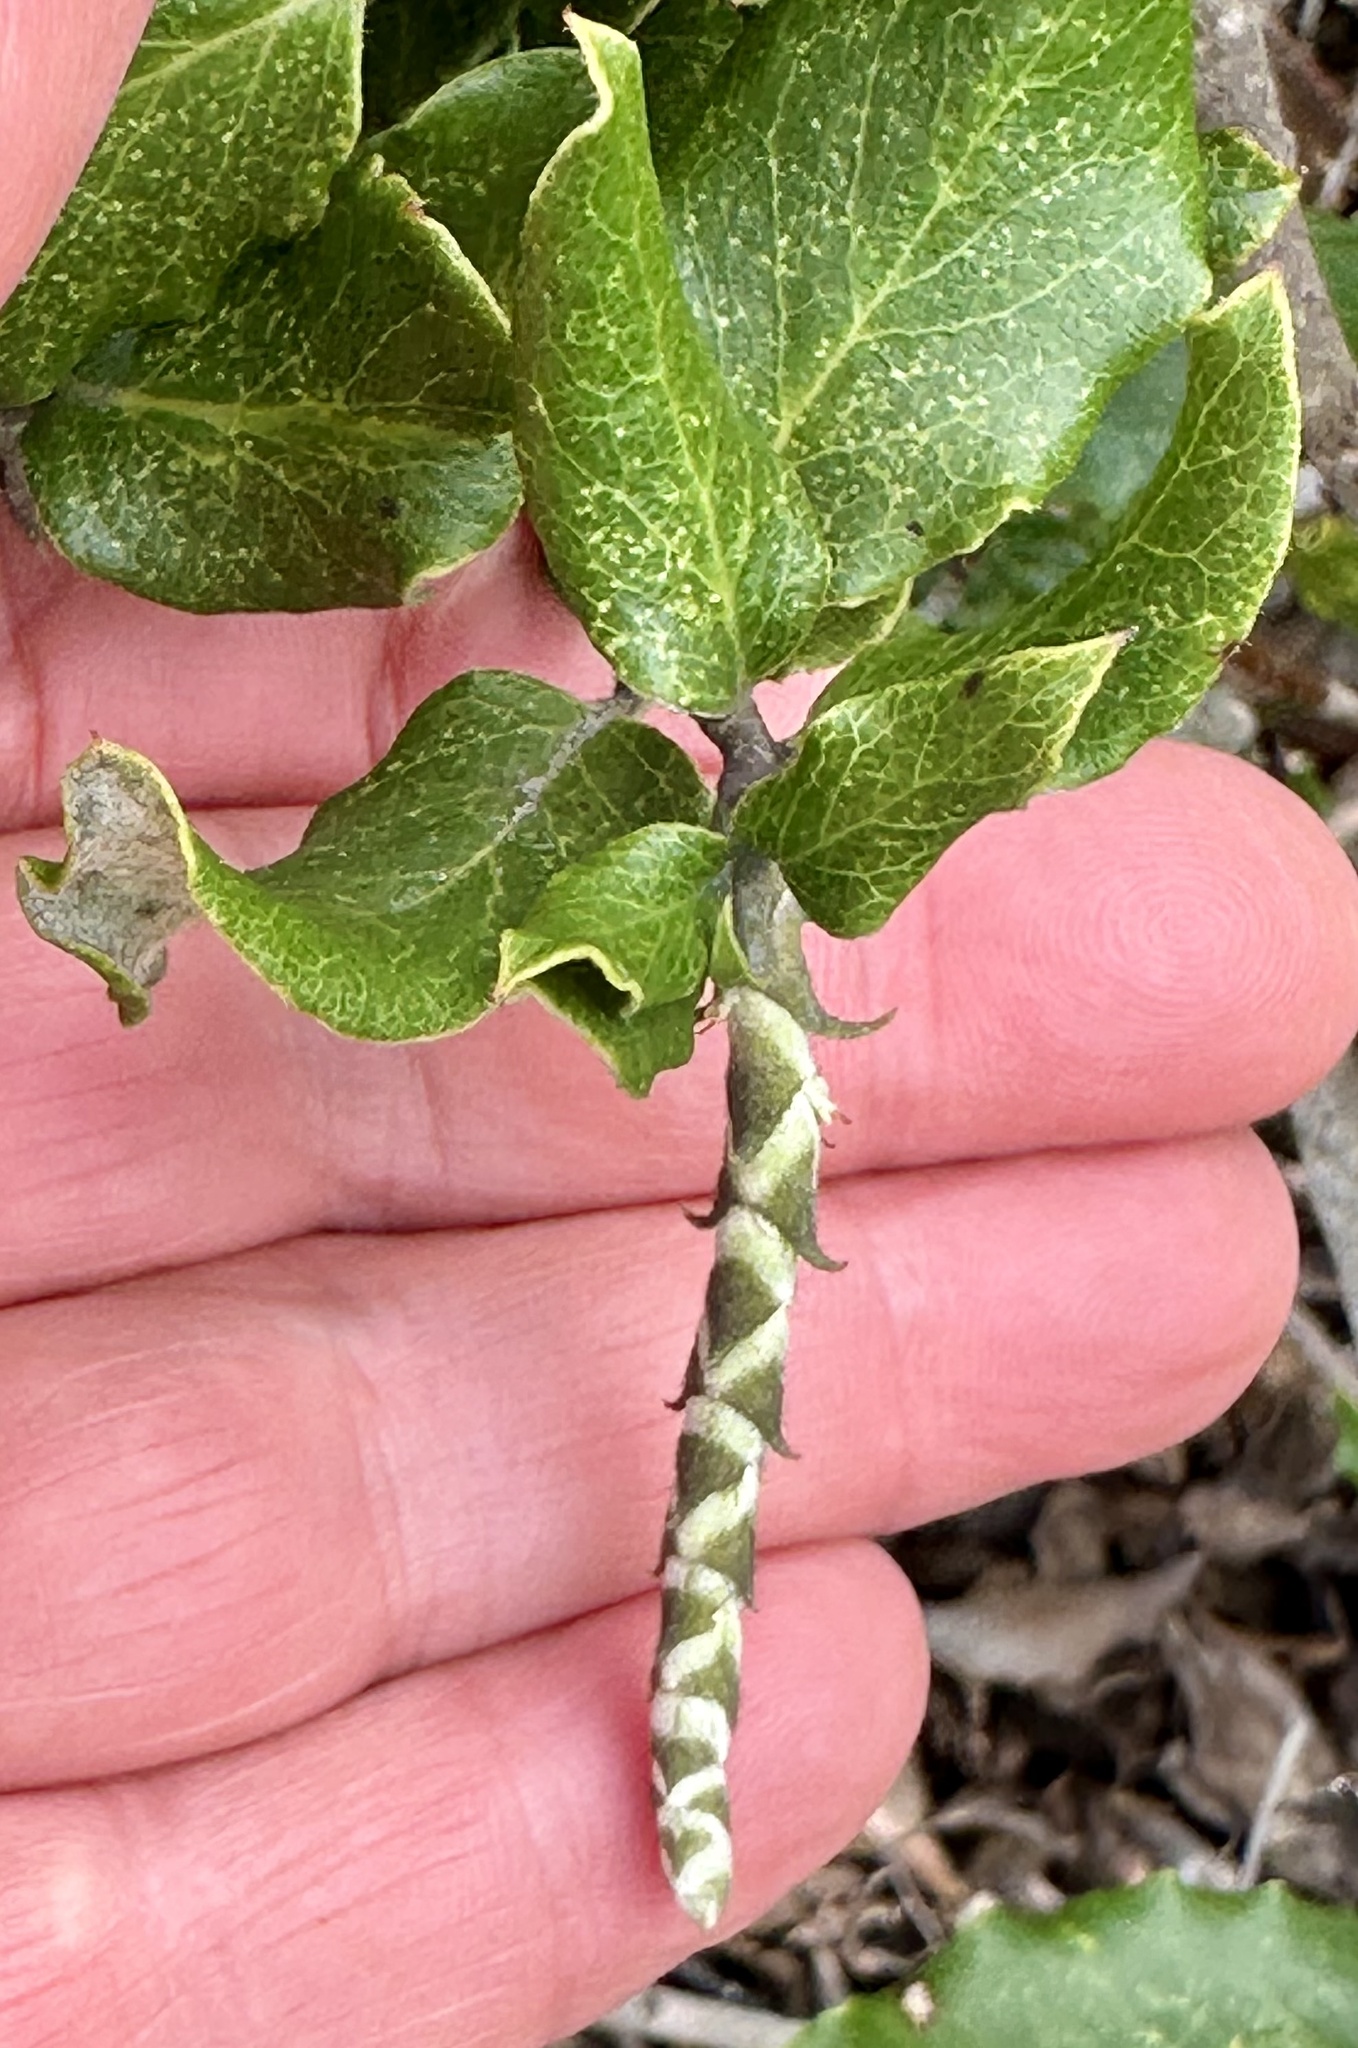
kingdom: Plantae
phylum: Tracheophyta
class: Magnoliopsida
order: Garryales
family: Garryaceae
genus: Garrya
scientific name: Garrya elliptica
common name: Silk-tassel
